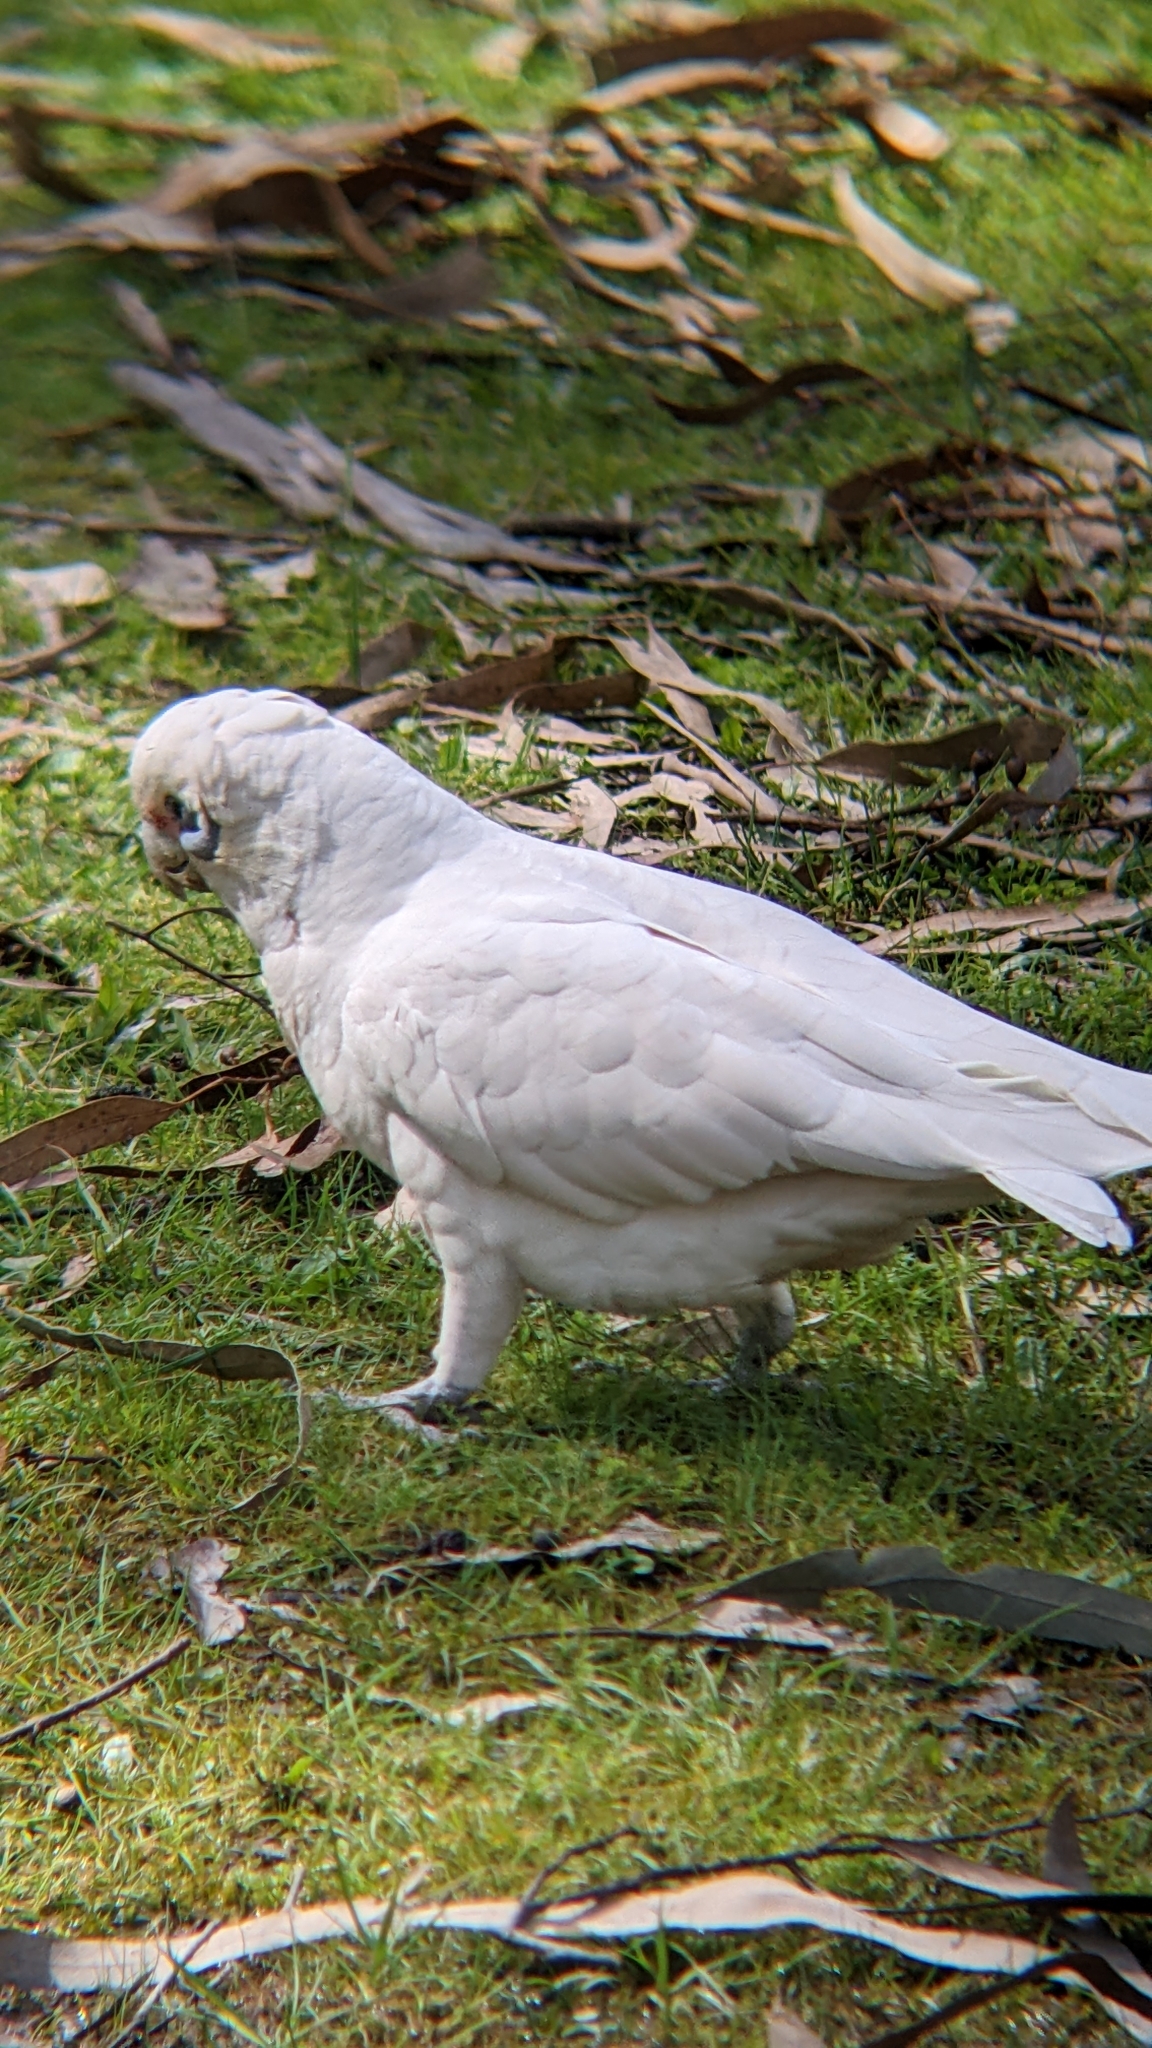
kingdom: Animalia
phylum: Chordata
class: Aves
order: Psittaciformes
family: Psittacidae
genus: Cacatua
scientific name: Cacatua sanguinea
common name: Little corella
